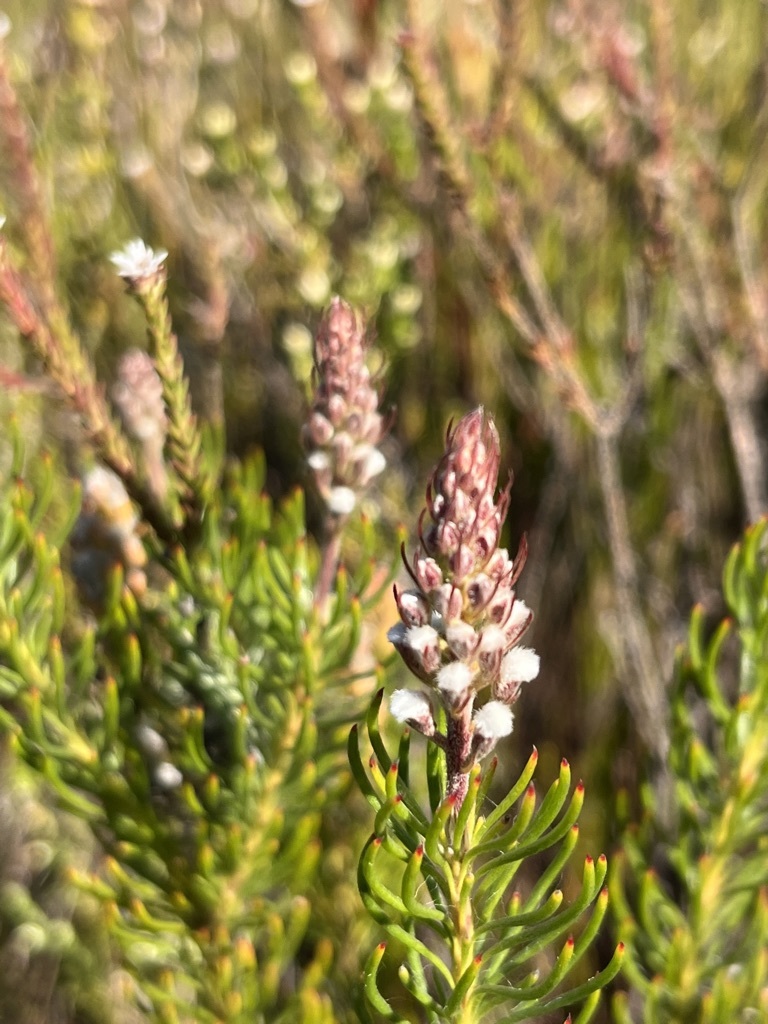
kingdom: Plantae
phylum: Tracheophyta
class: Magnoliopsida
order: Proteales
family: Proteaceae
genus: Spatalla
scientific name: Spatalla curvifolia
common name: White-stalked spoon
